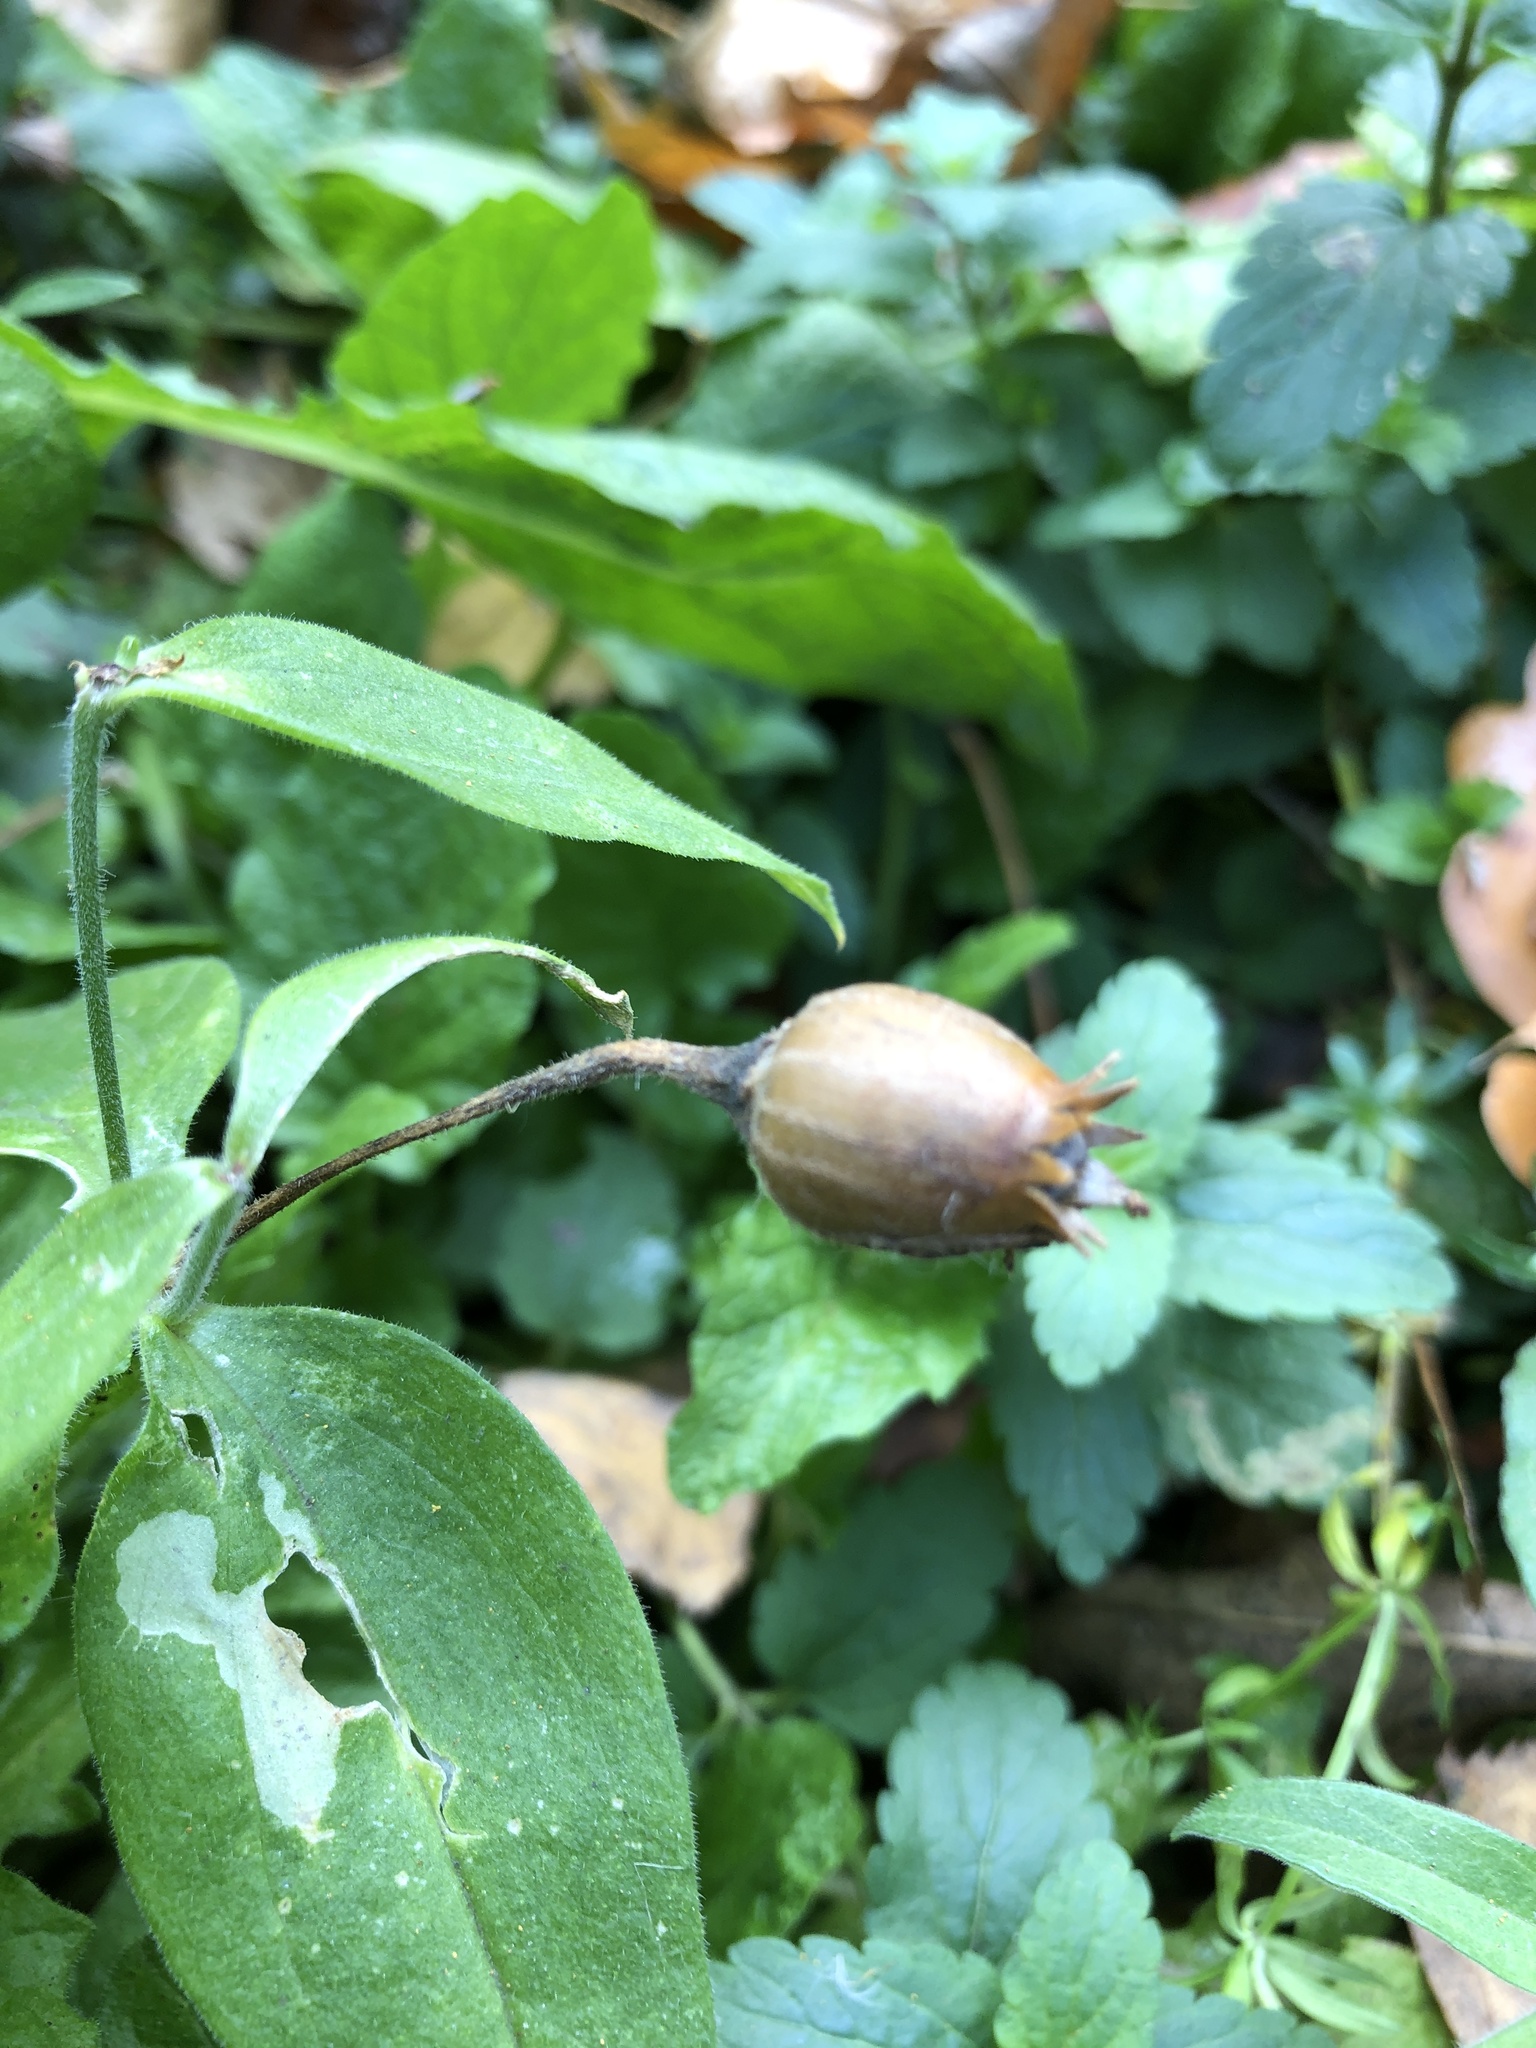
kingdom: Plantae
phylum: Tracheophyta
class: Magnoliopsida
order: Caryophyllales
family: Caryophyllaceae
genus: Silene
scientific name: Silene latifolia
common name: White campion
